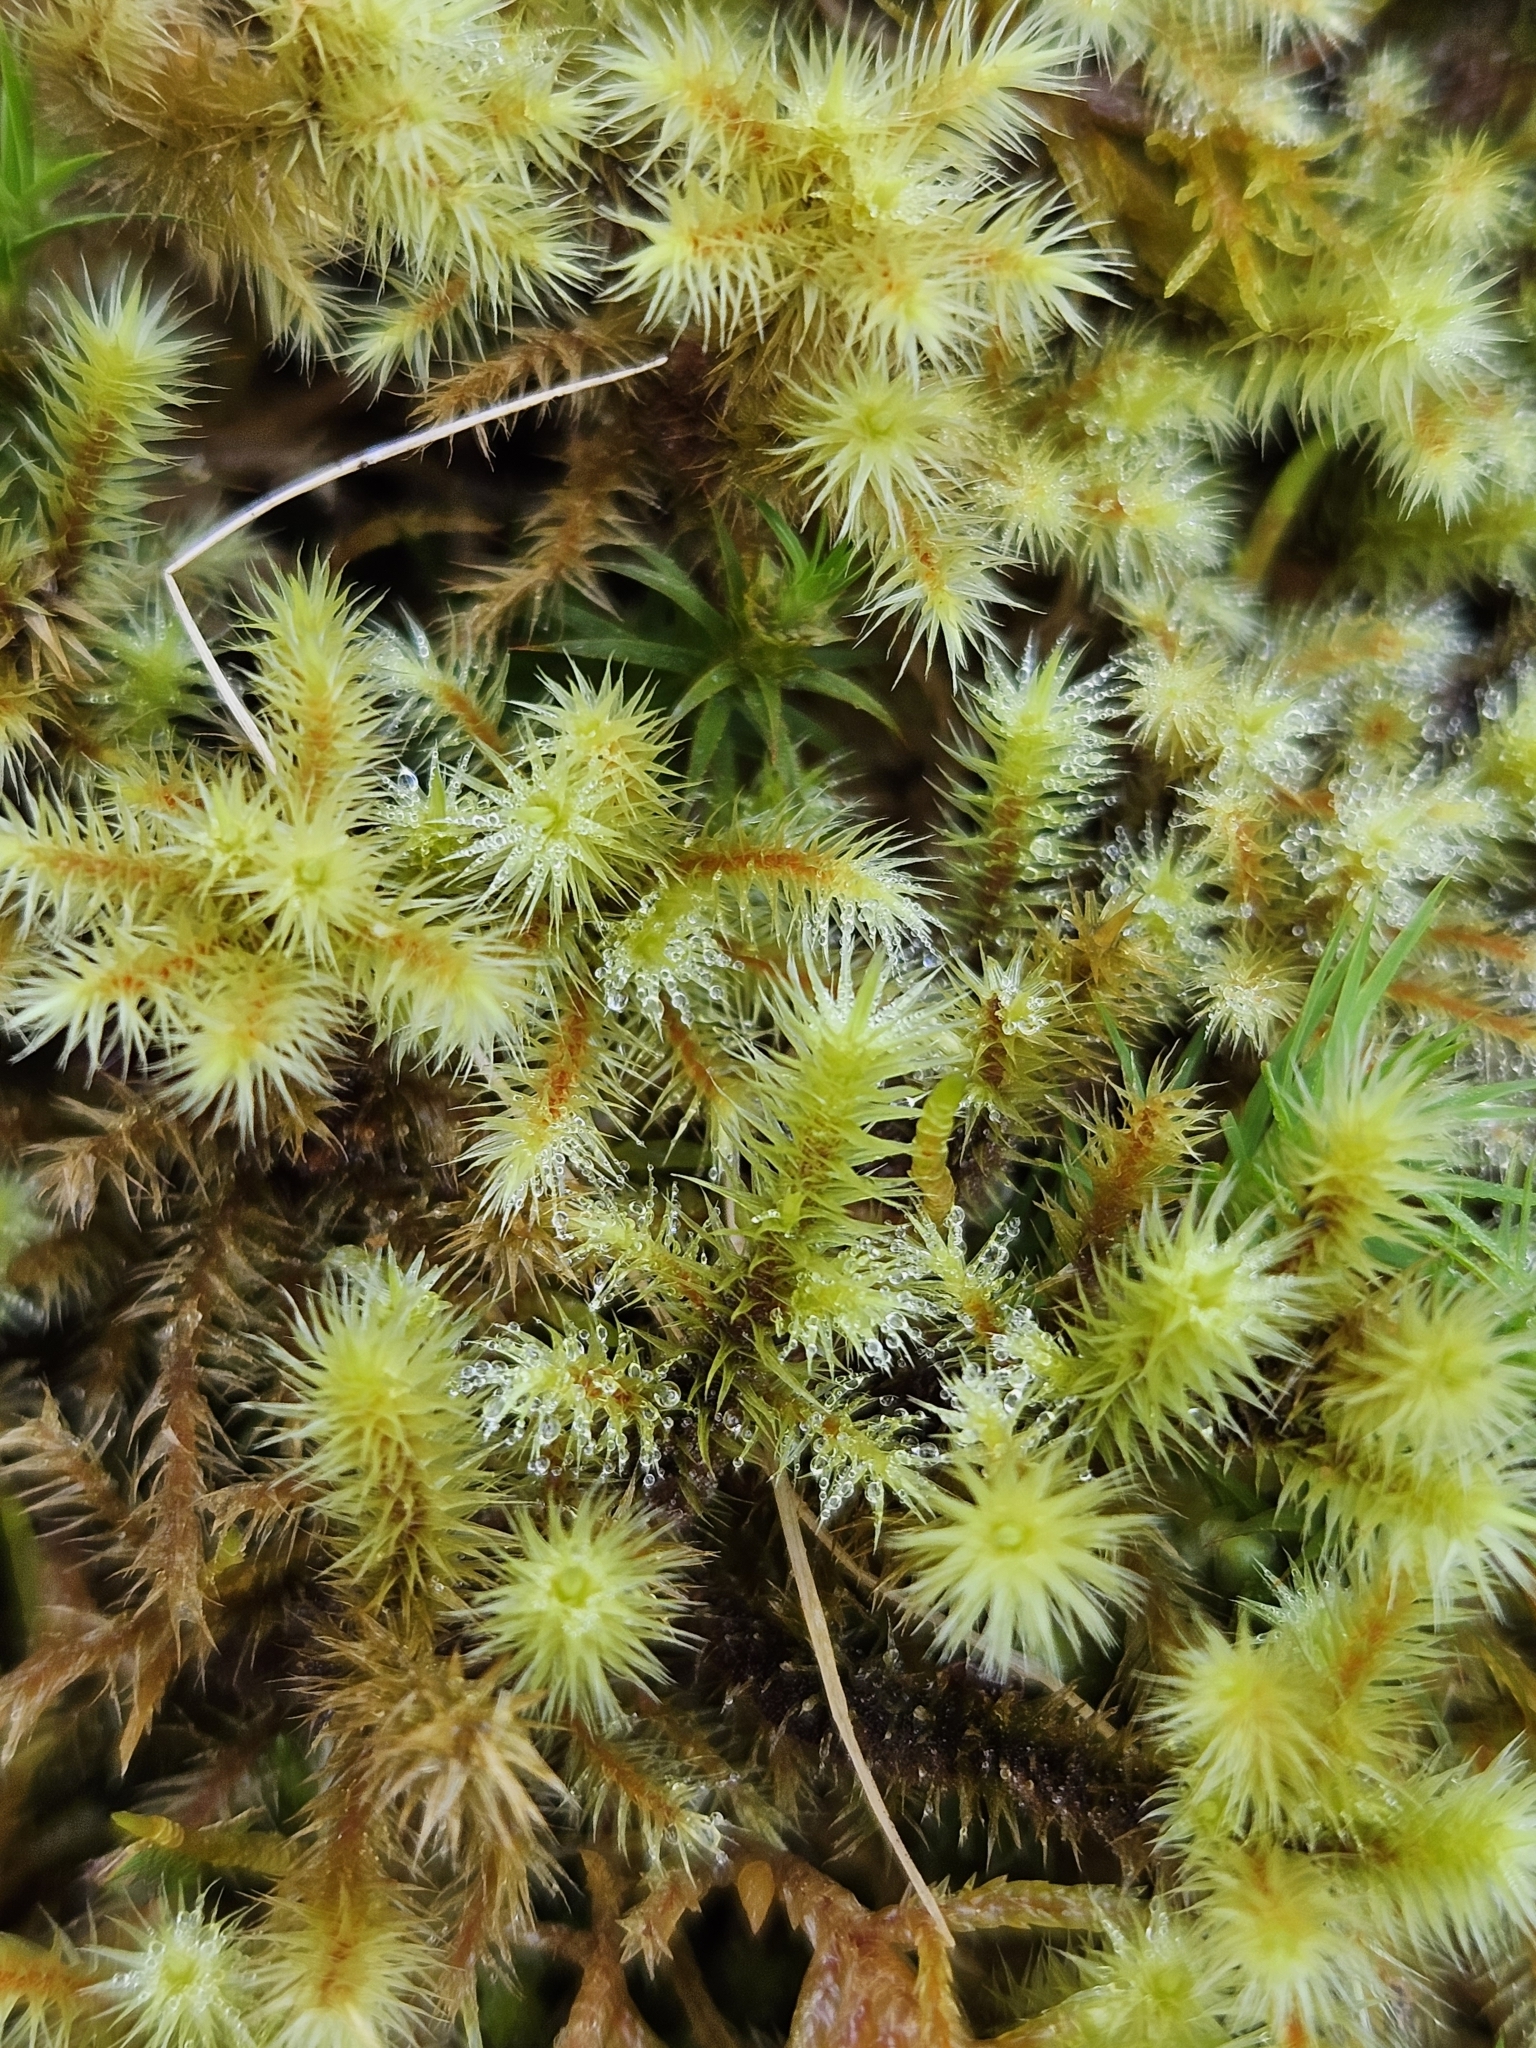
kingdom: Plantae
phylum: Bryophyta
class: Bryopsida
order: Bartramiales
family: Bartramiaceae
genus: Breutelia
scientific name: Breutelia chrysocoma
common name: Bottle-brush moss
